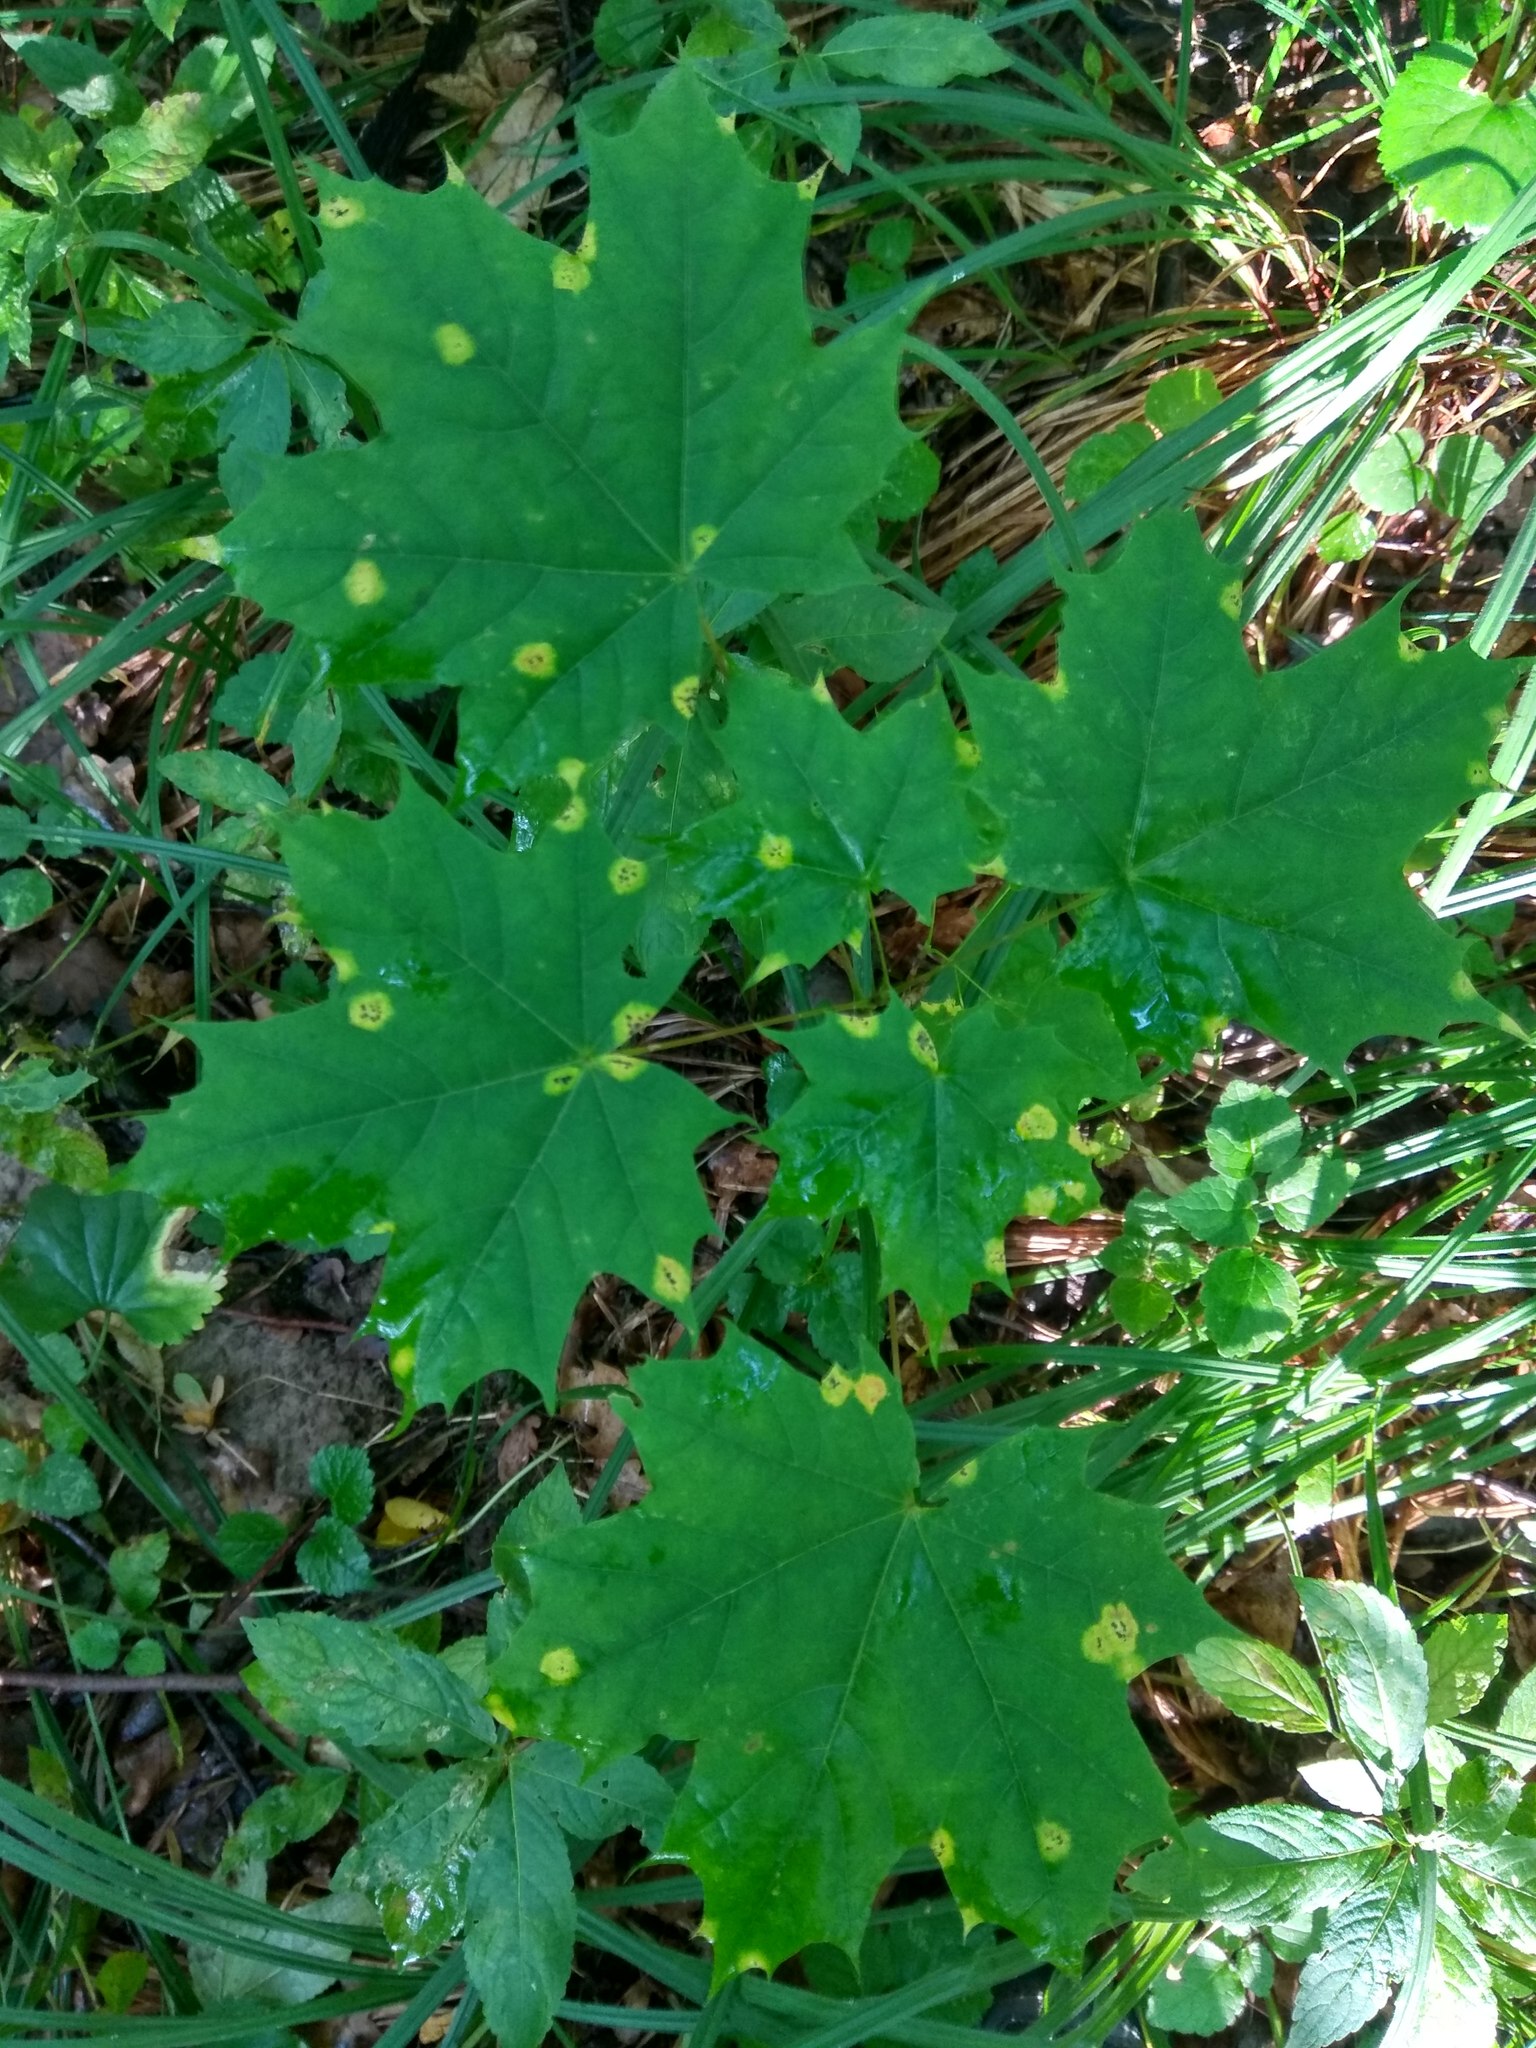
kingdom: Plantae
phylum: Tracheophyta
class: Magnoliopsida
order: Sapindales
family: Sapindaceae
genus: Acer
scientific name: Acer platanoides
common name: Norway maple
